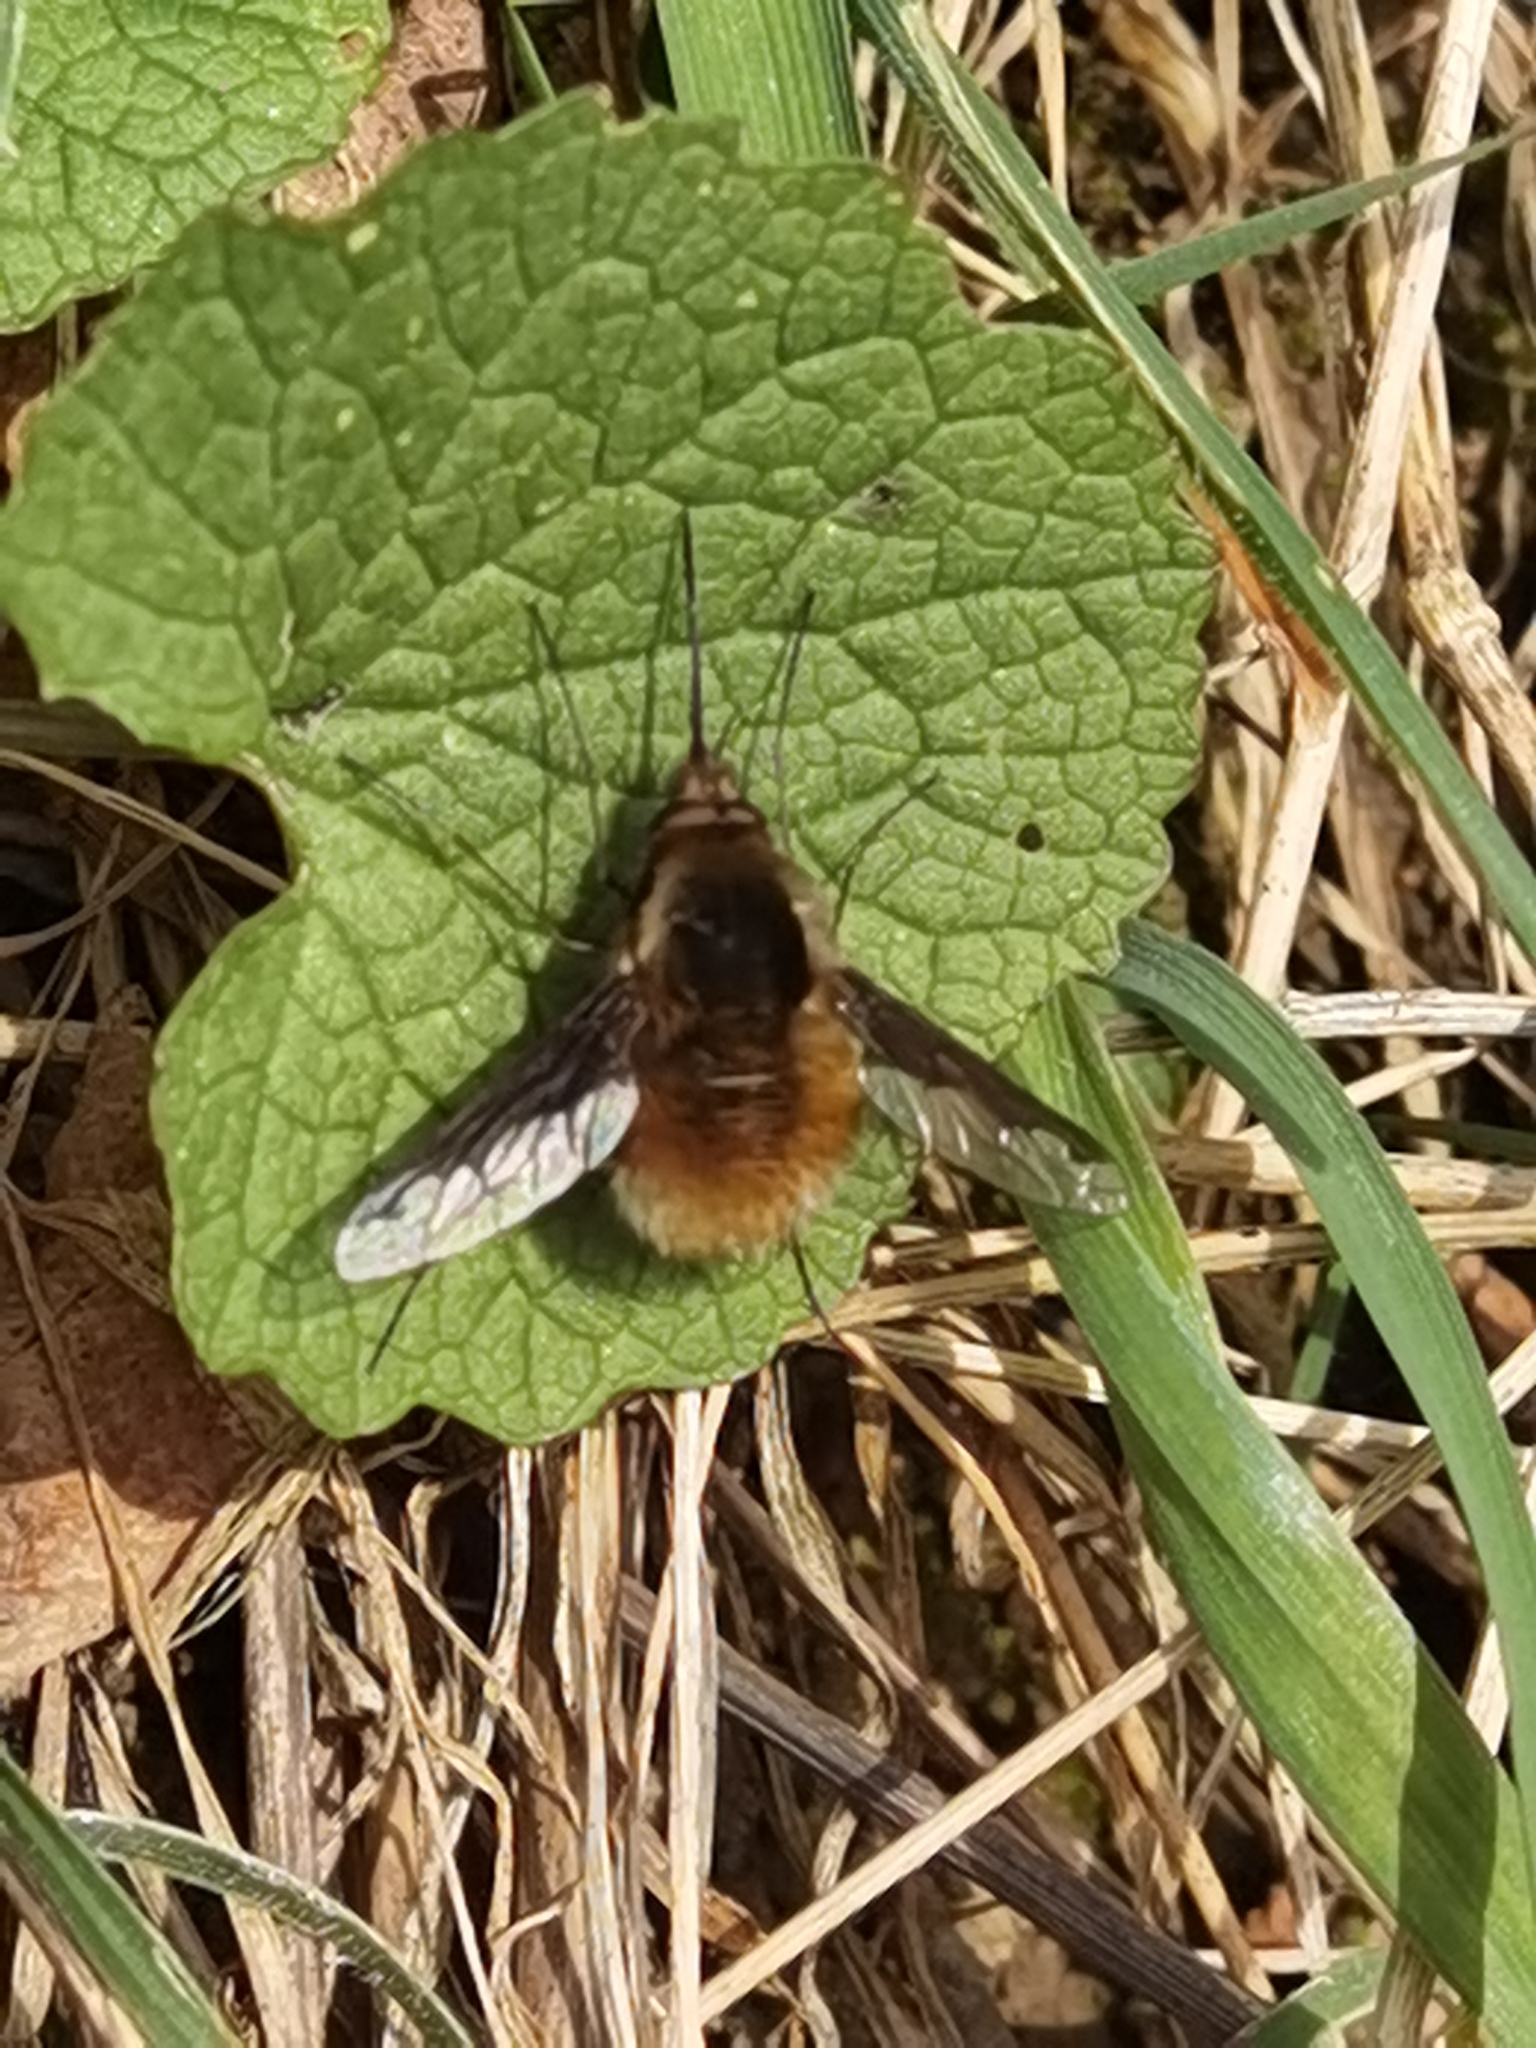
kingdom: Animalia
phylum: Arthropoda
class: Insecta
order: Diptera
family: Bombyliidae
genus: Bombylius
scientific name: Bombylius major
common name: Bee fly
